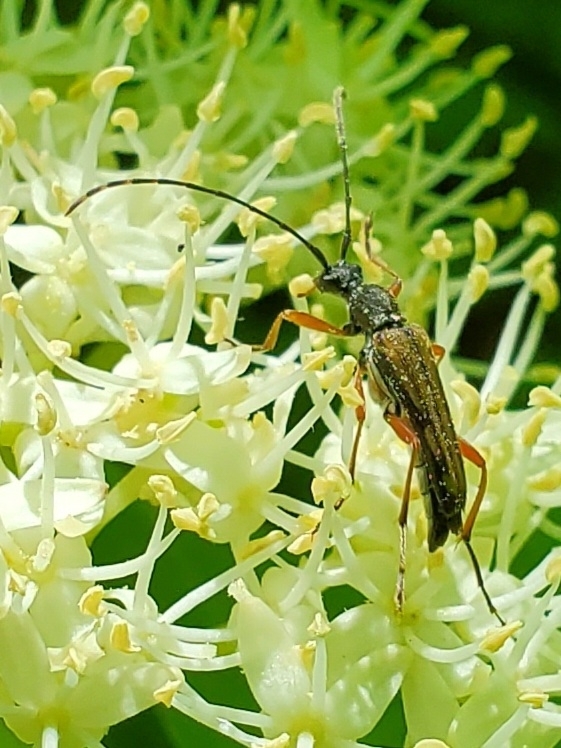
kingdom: Animalia
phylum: Arthropoda
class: Insecta
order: Coleoptera
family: Cerambycidae
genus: Analeptura
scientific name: Analeptura lineola
